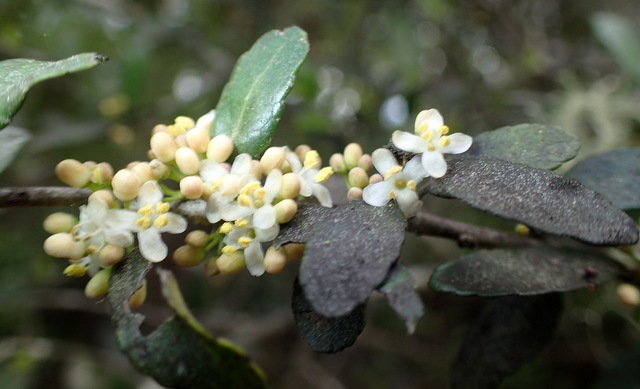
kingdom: Plantae
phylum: Tracheophyta
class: Magnoliopsida
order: Aquifoliales
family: Aquifoliaceae
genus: Ilex
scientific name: Ilex vomitoria
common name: Yaupon holly
